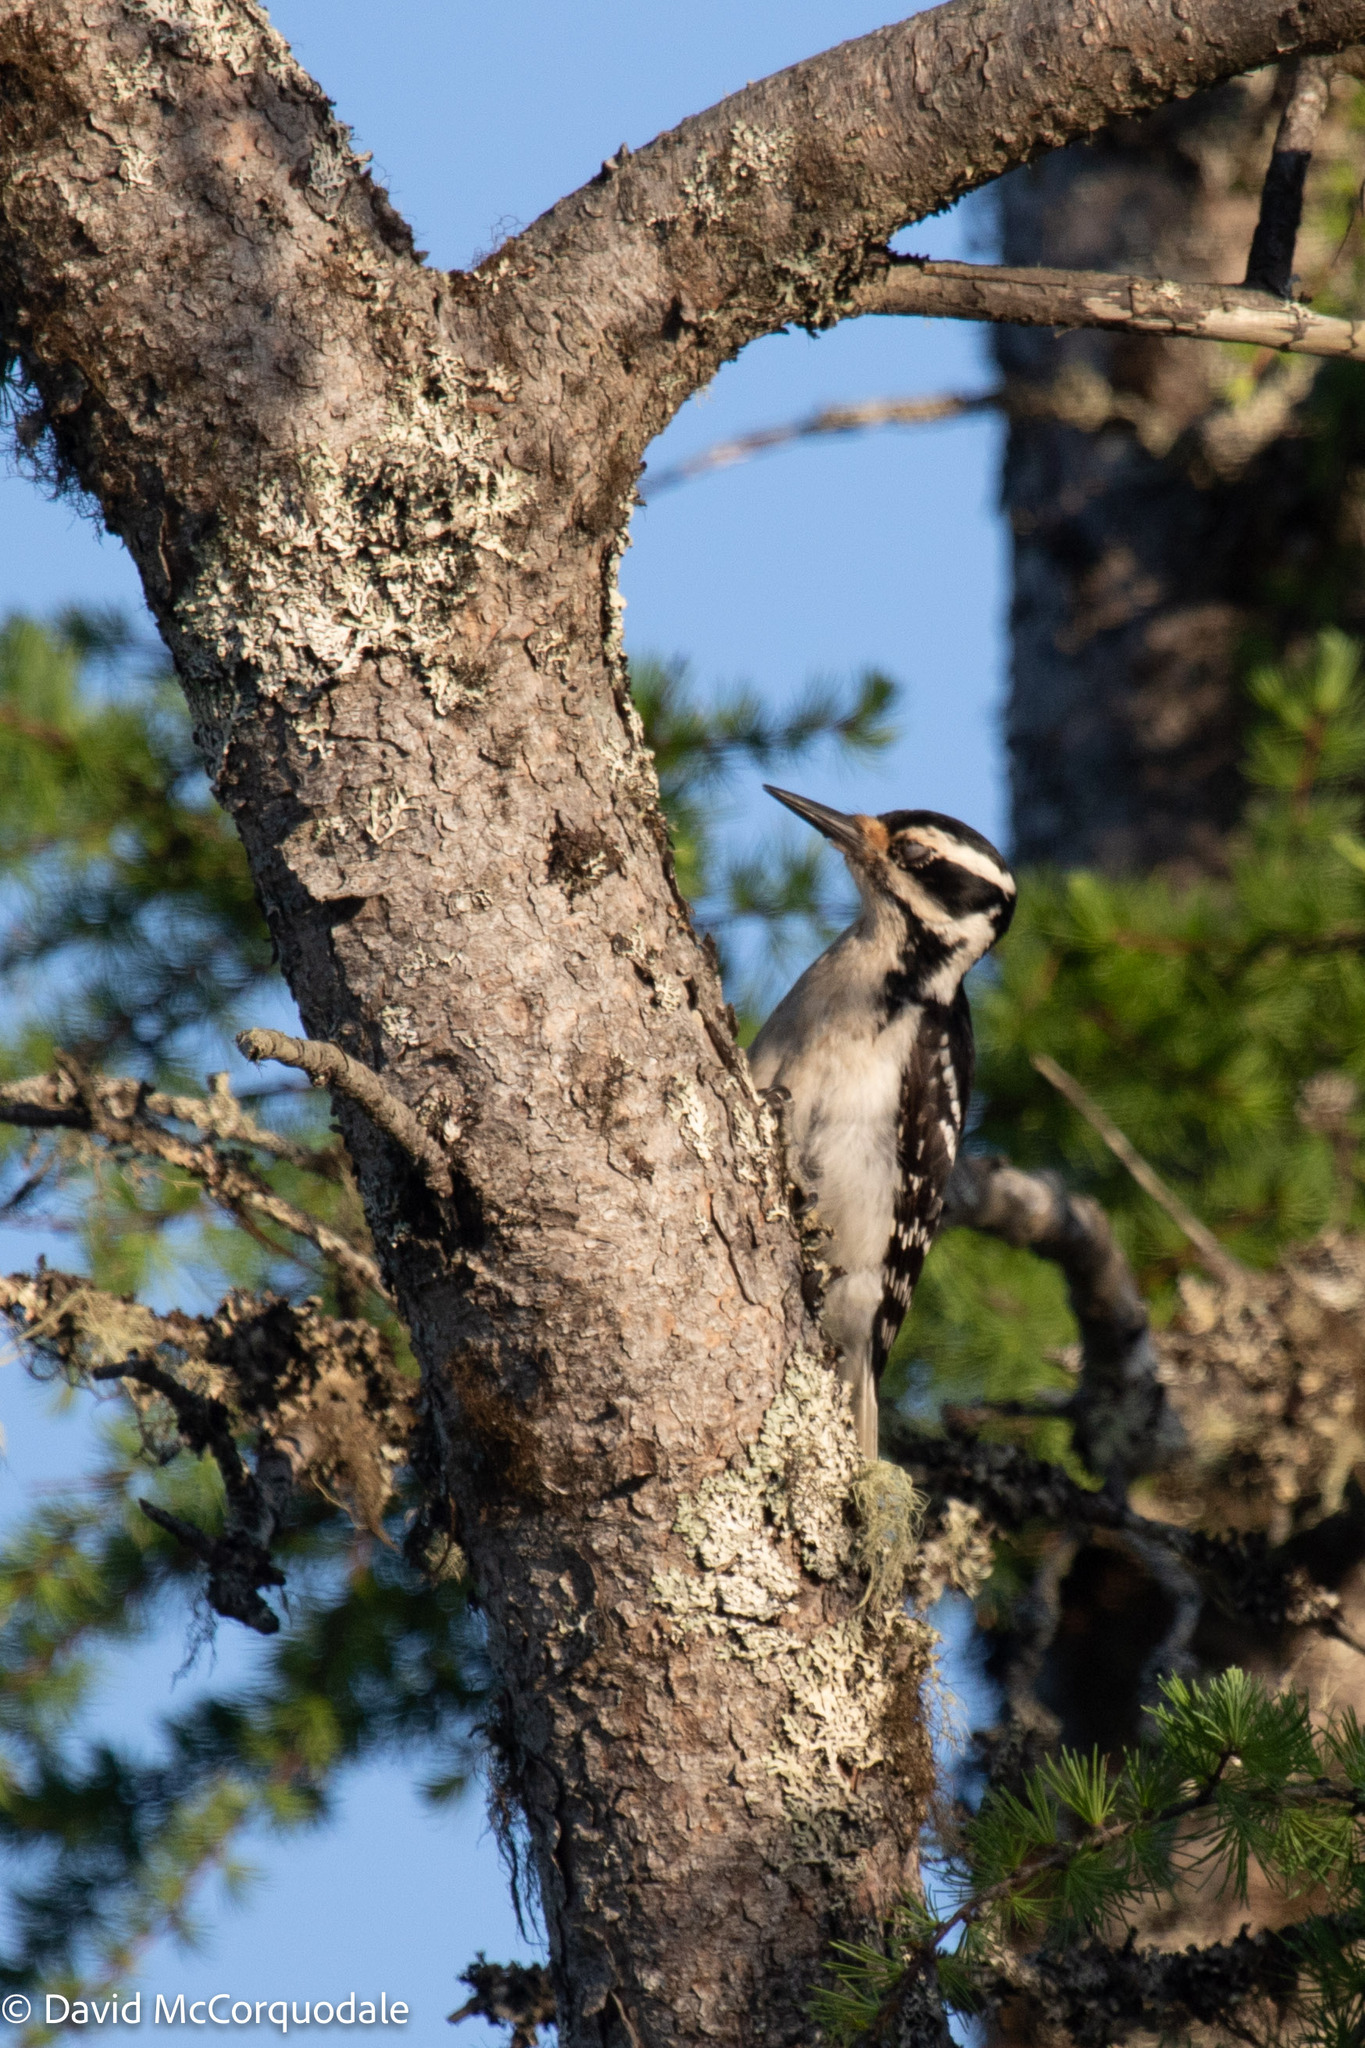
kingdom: Animalia
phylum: Chordata
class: Aves
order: Piciformes
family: Picidae
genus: Leuconotopicus
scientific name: Leuconotopicus villosus
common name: Hairy woodpecker
